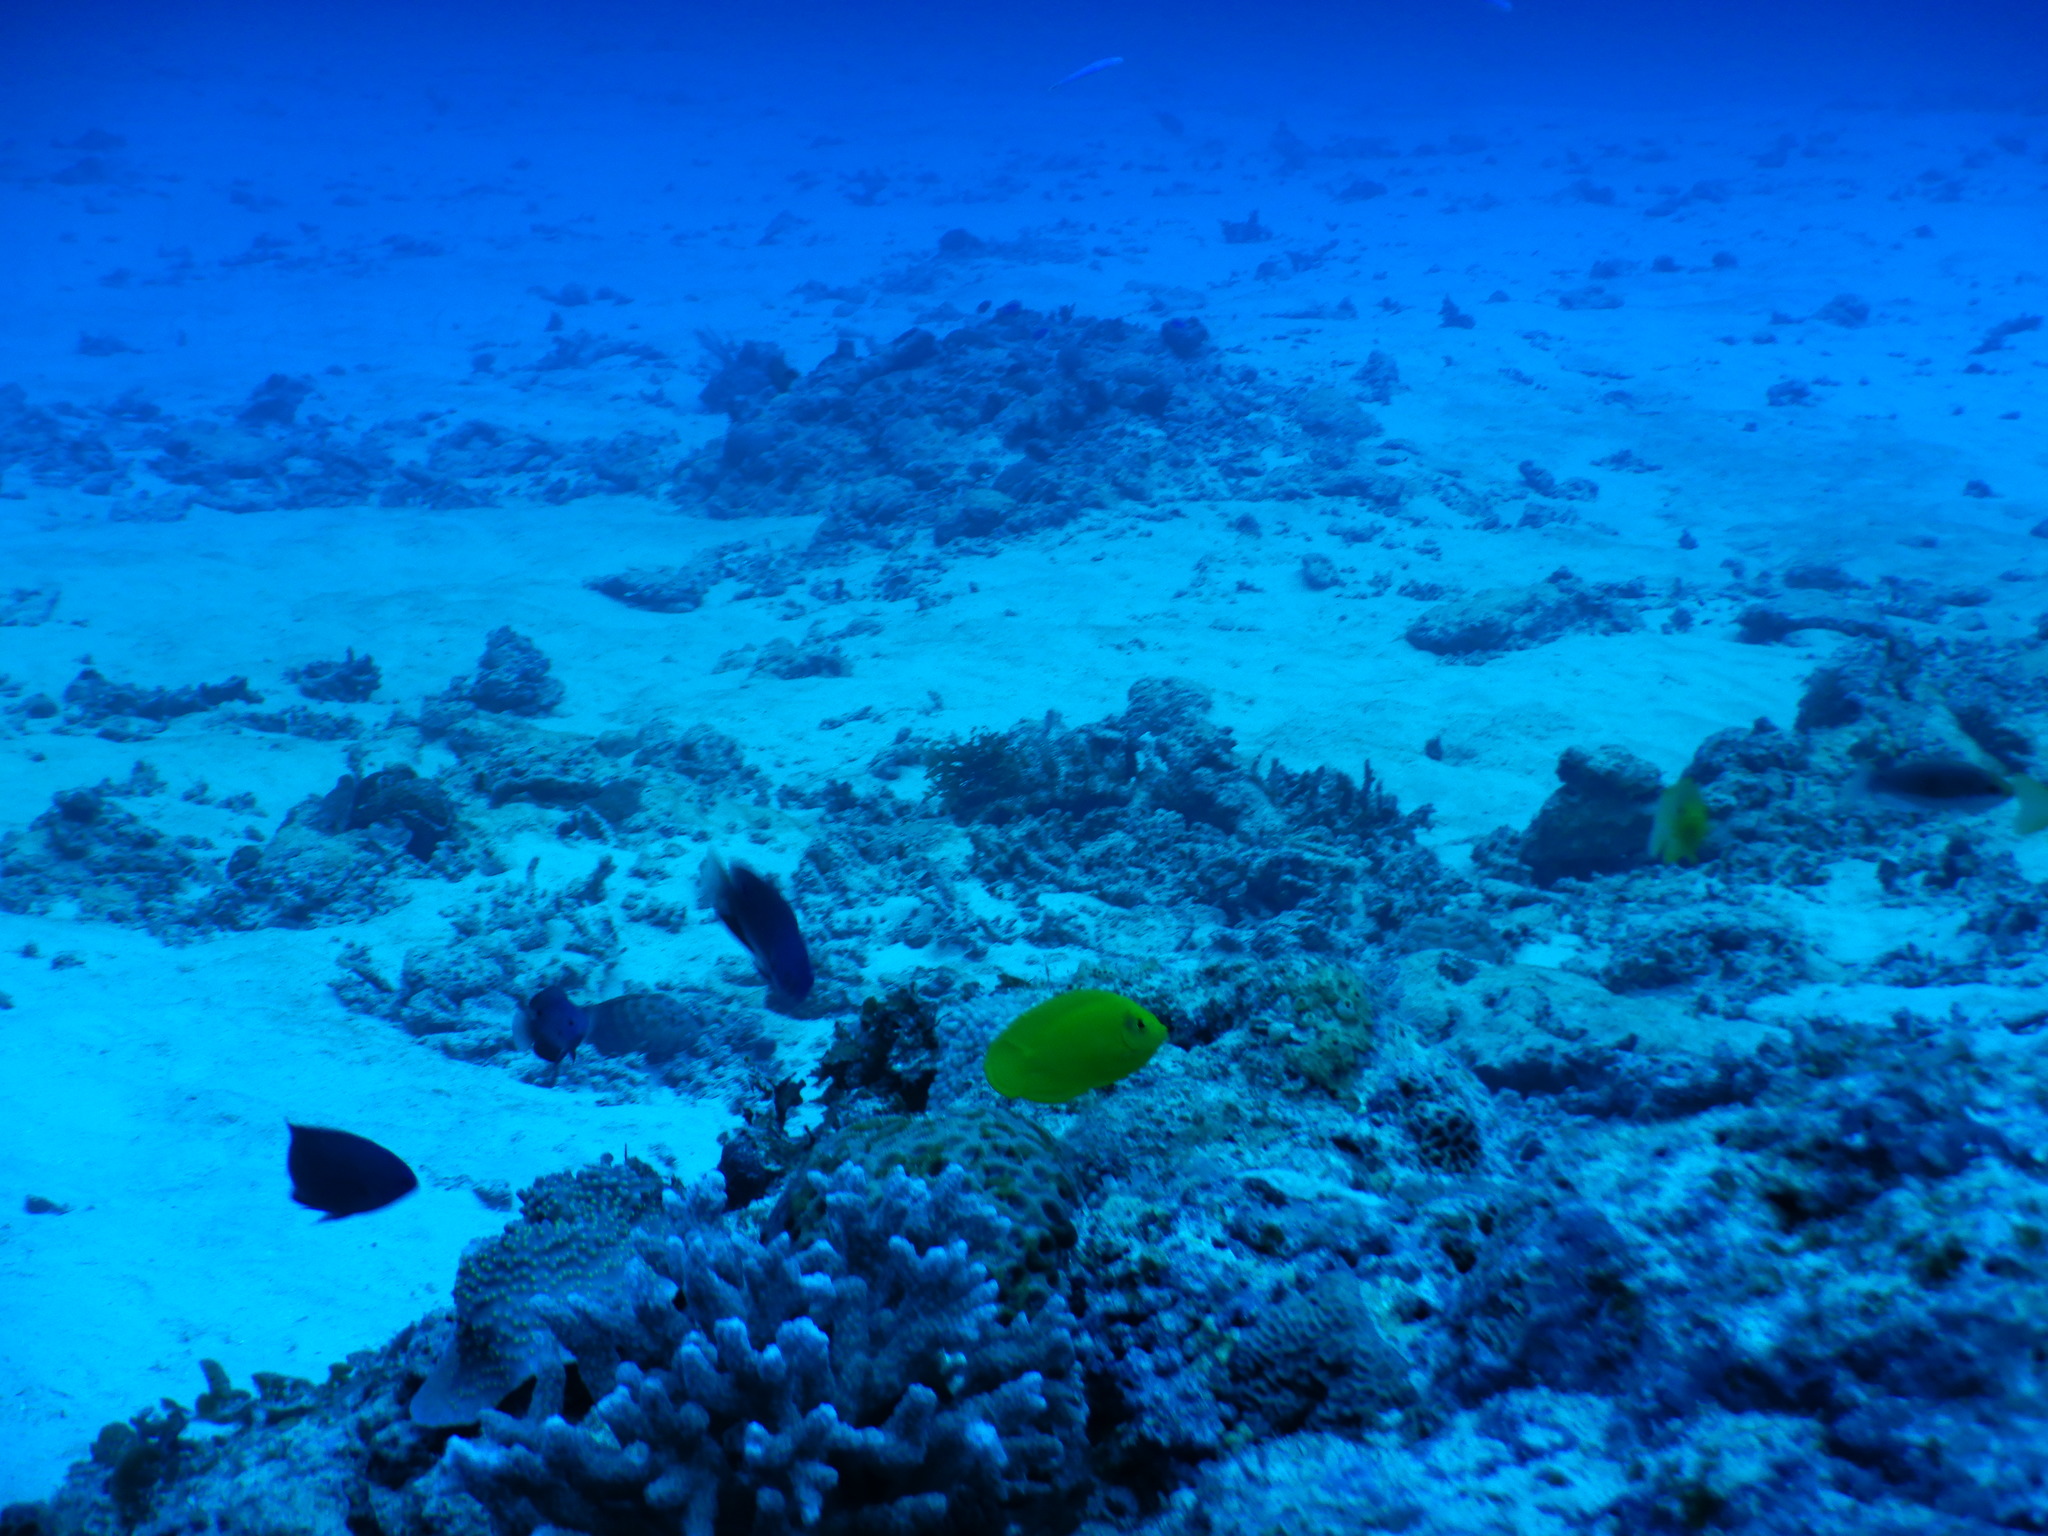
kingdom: Animalia
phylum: Chordata
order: Perciformes
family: Pomacanthidae
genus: Centropyge
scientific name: Centropyge heraldi
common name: Herald's angelfish
